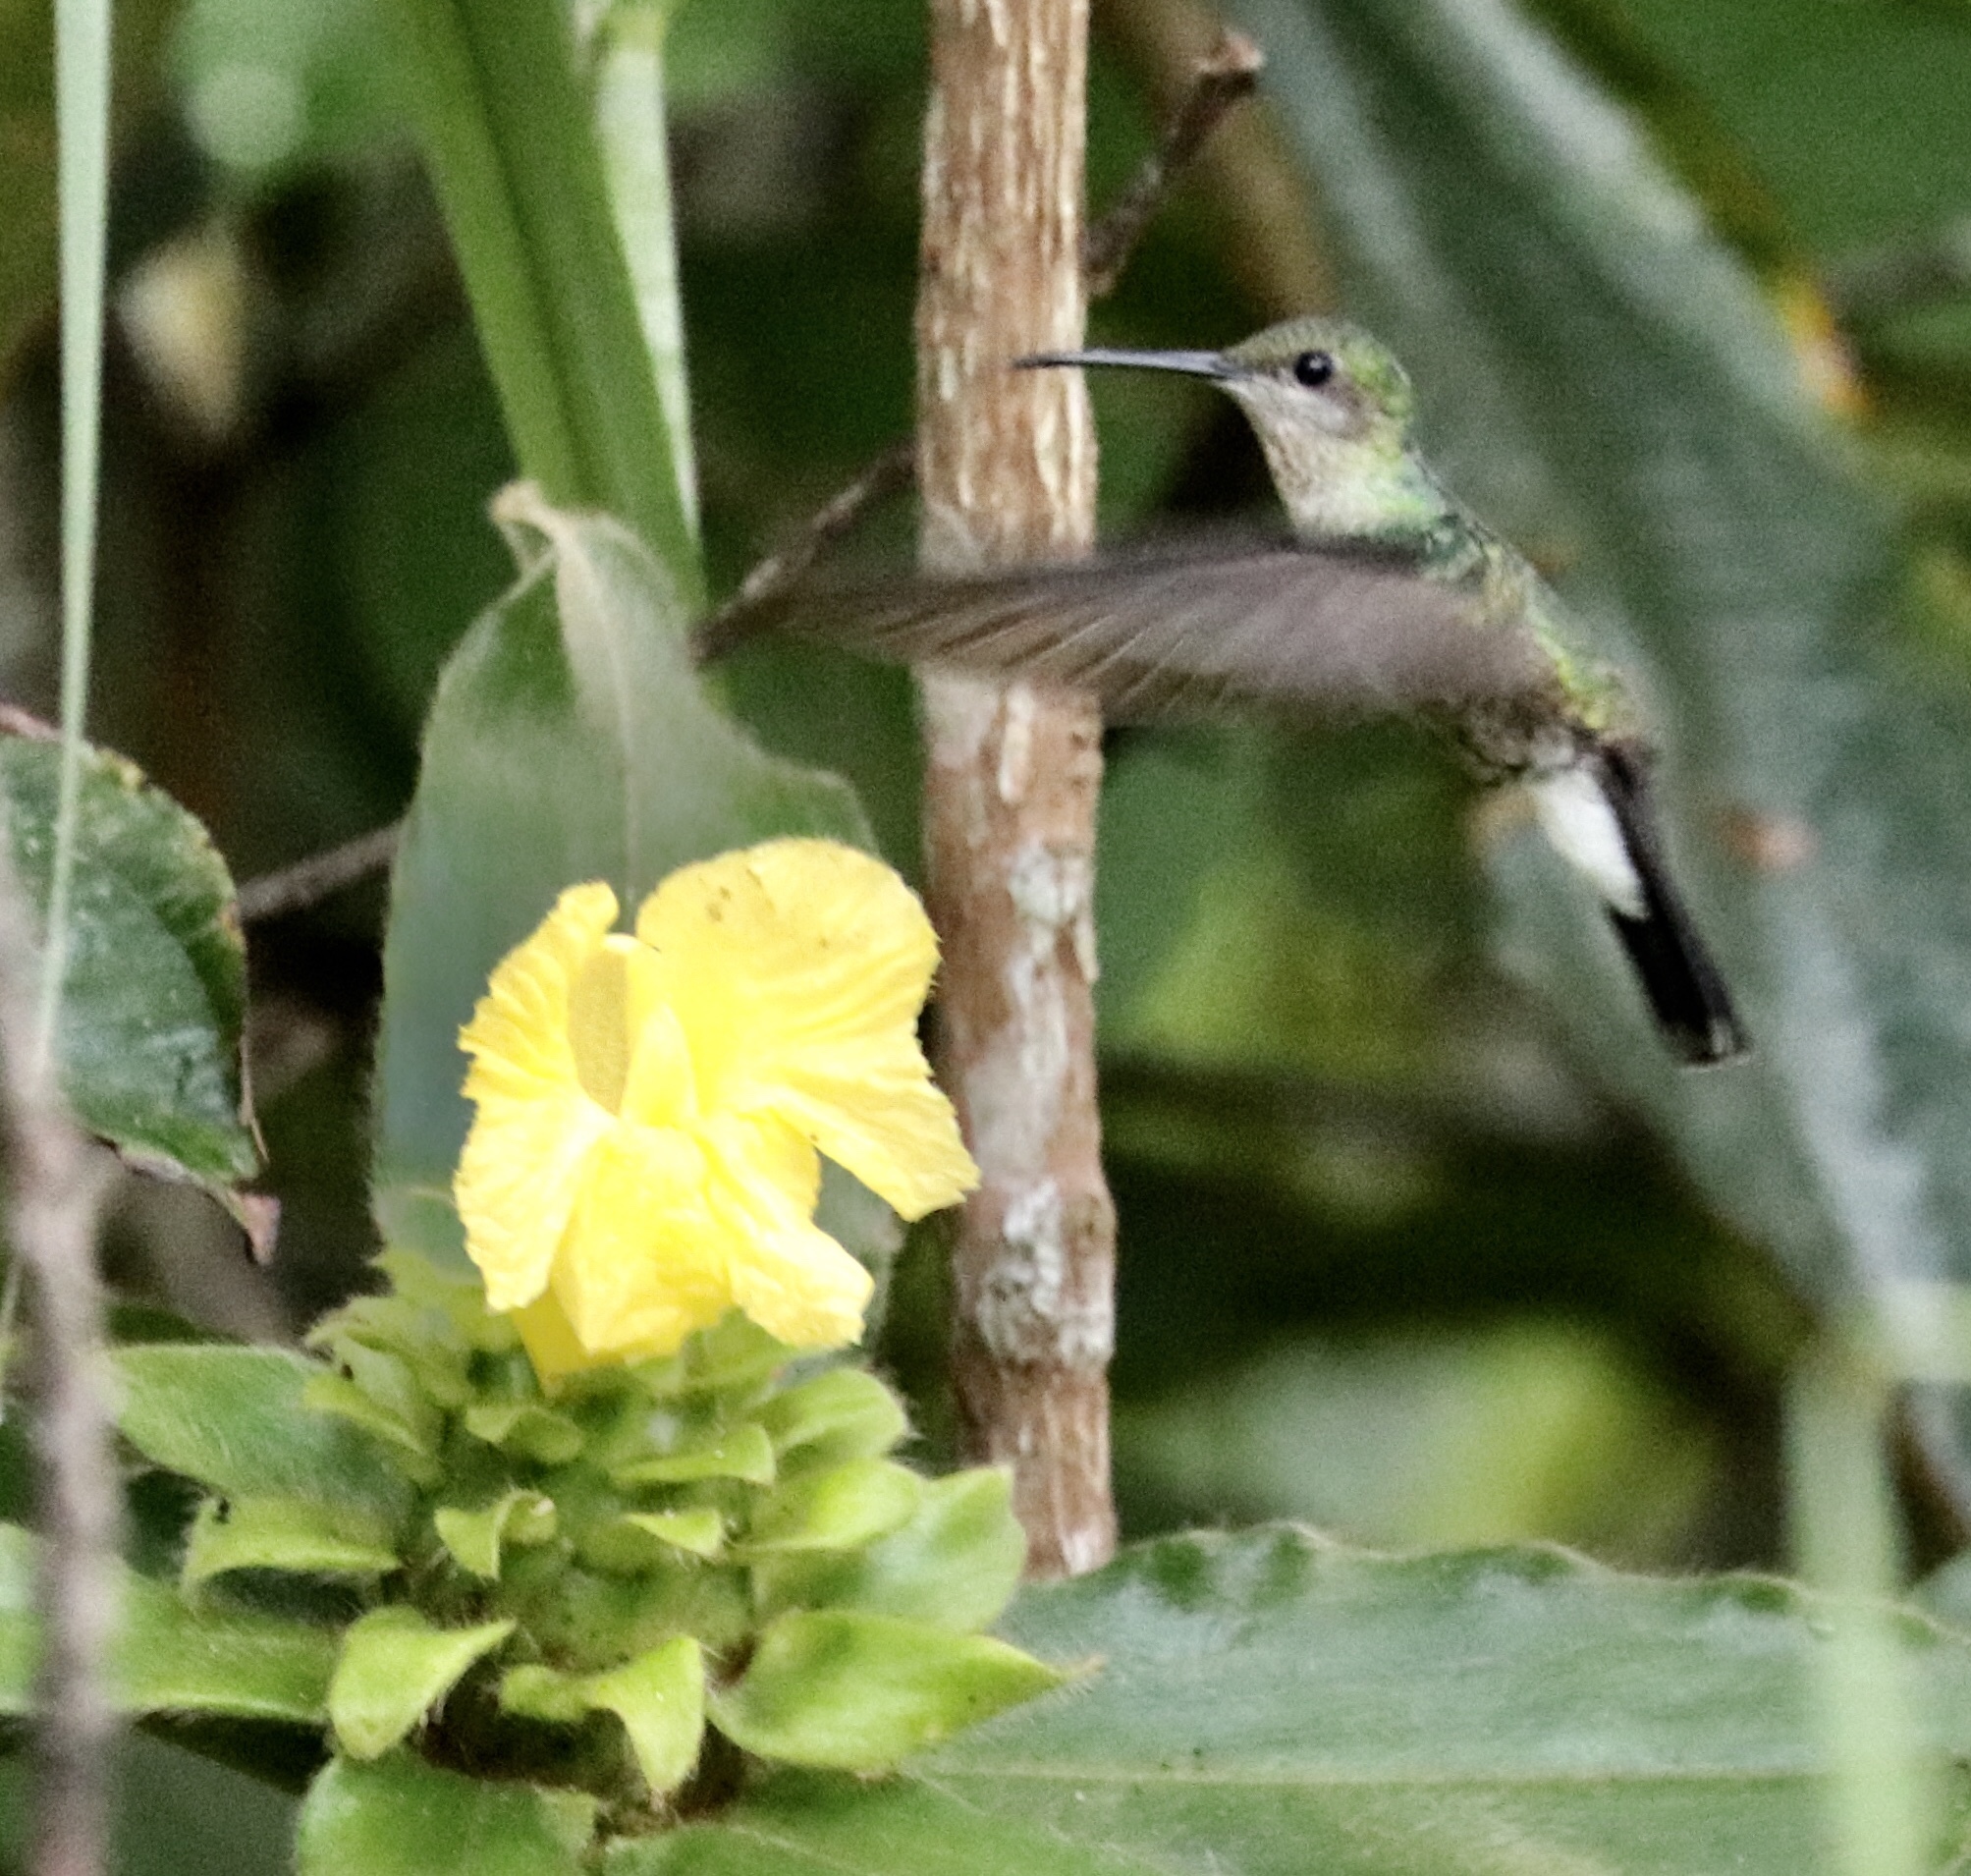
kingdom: Animalia
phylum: Chordata
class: Aves
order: Apodiformes
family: Trochilidae
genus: Chalybura
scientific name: Chalybura buffonii
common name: White-vented plumeleteer
